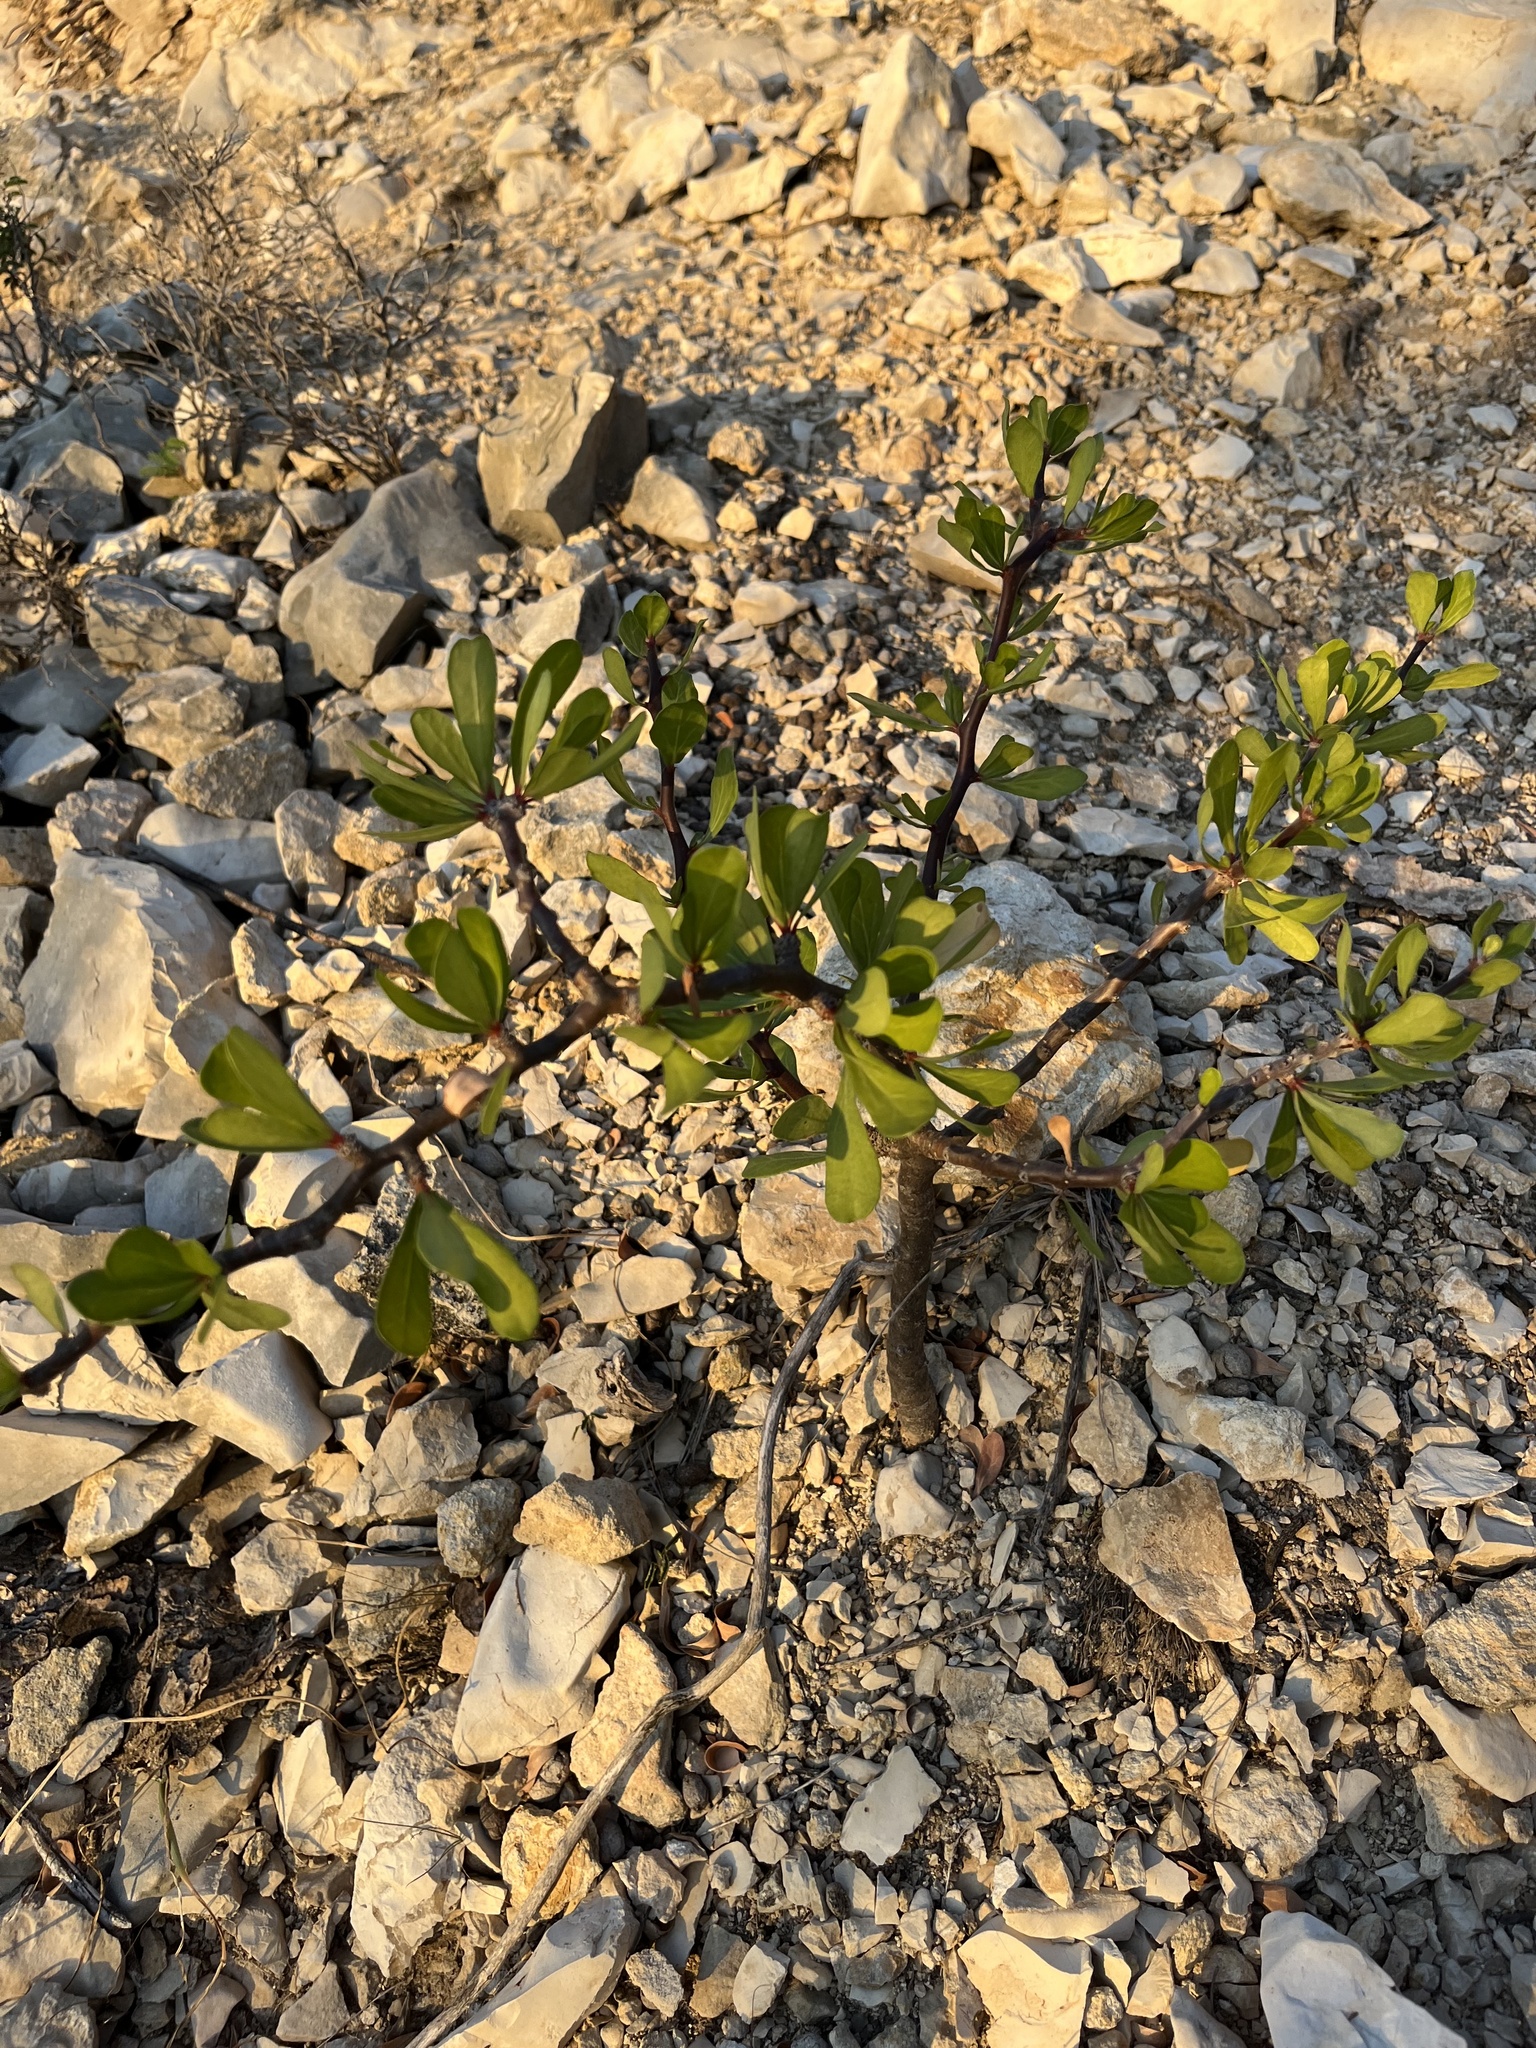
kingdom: Plantae
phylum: Tracheophyta
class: Magnoliopsida
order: Malpighiales
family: Euphorbiaceae
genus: Jatropha
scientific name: Jatropha dioica
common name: Leatherstem
